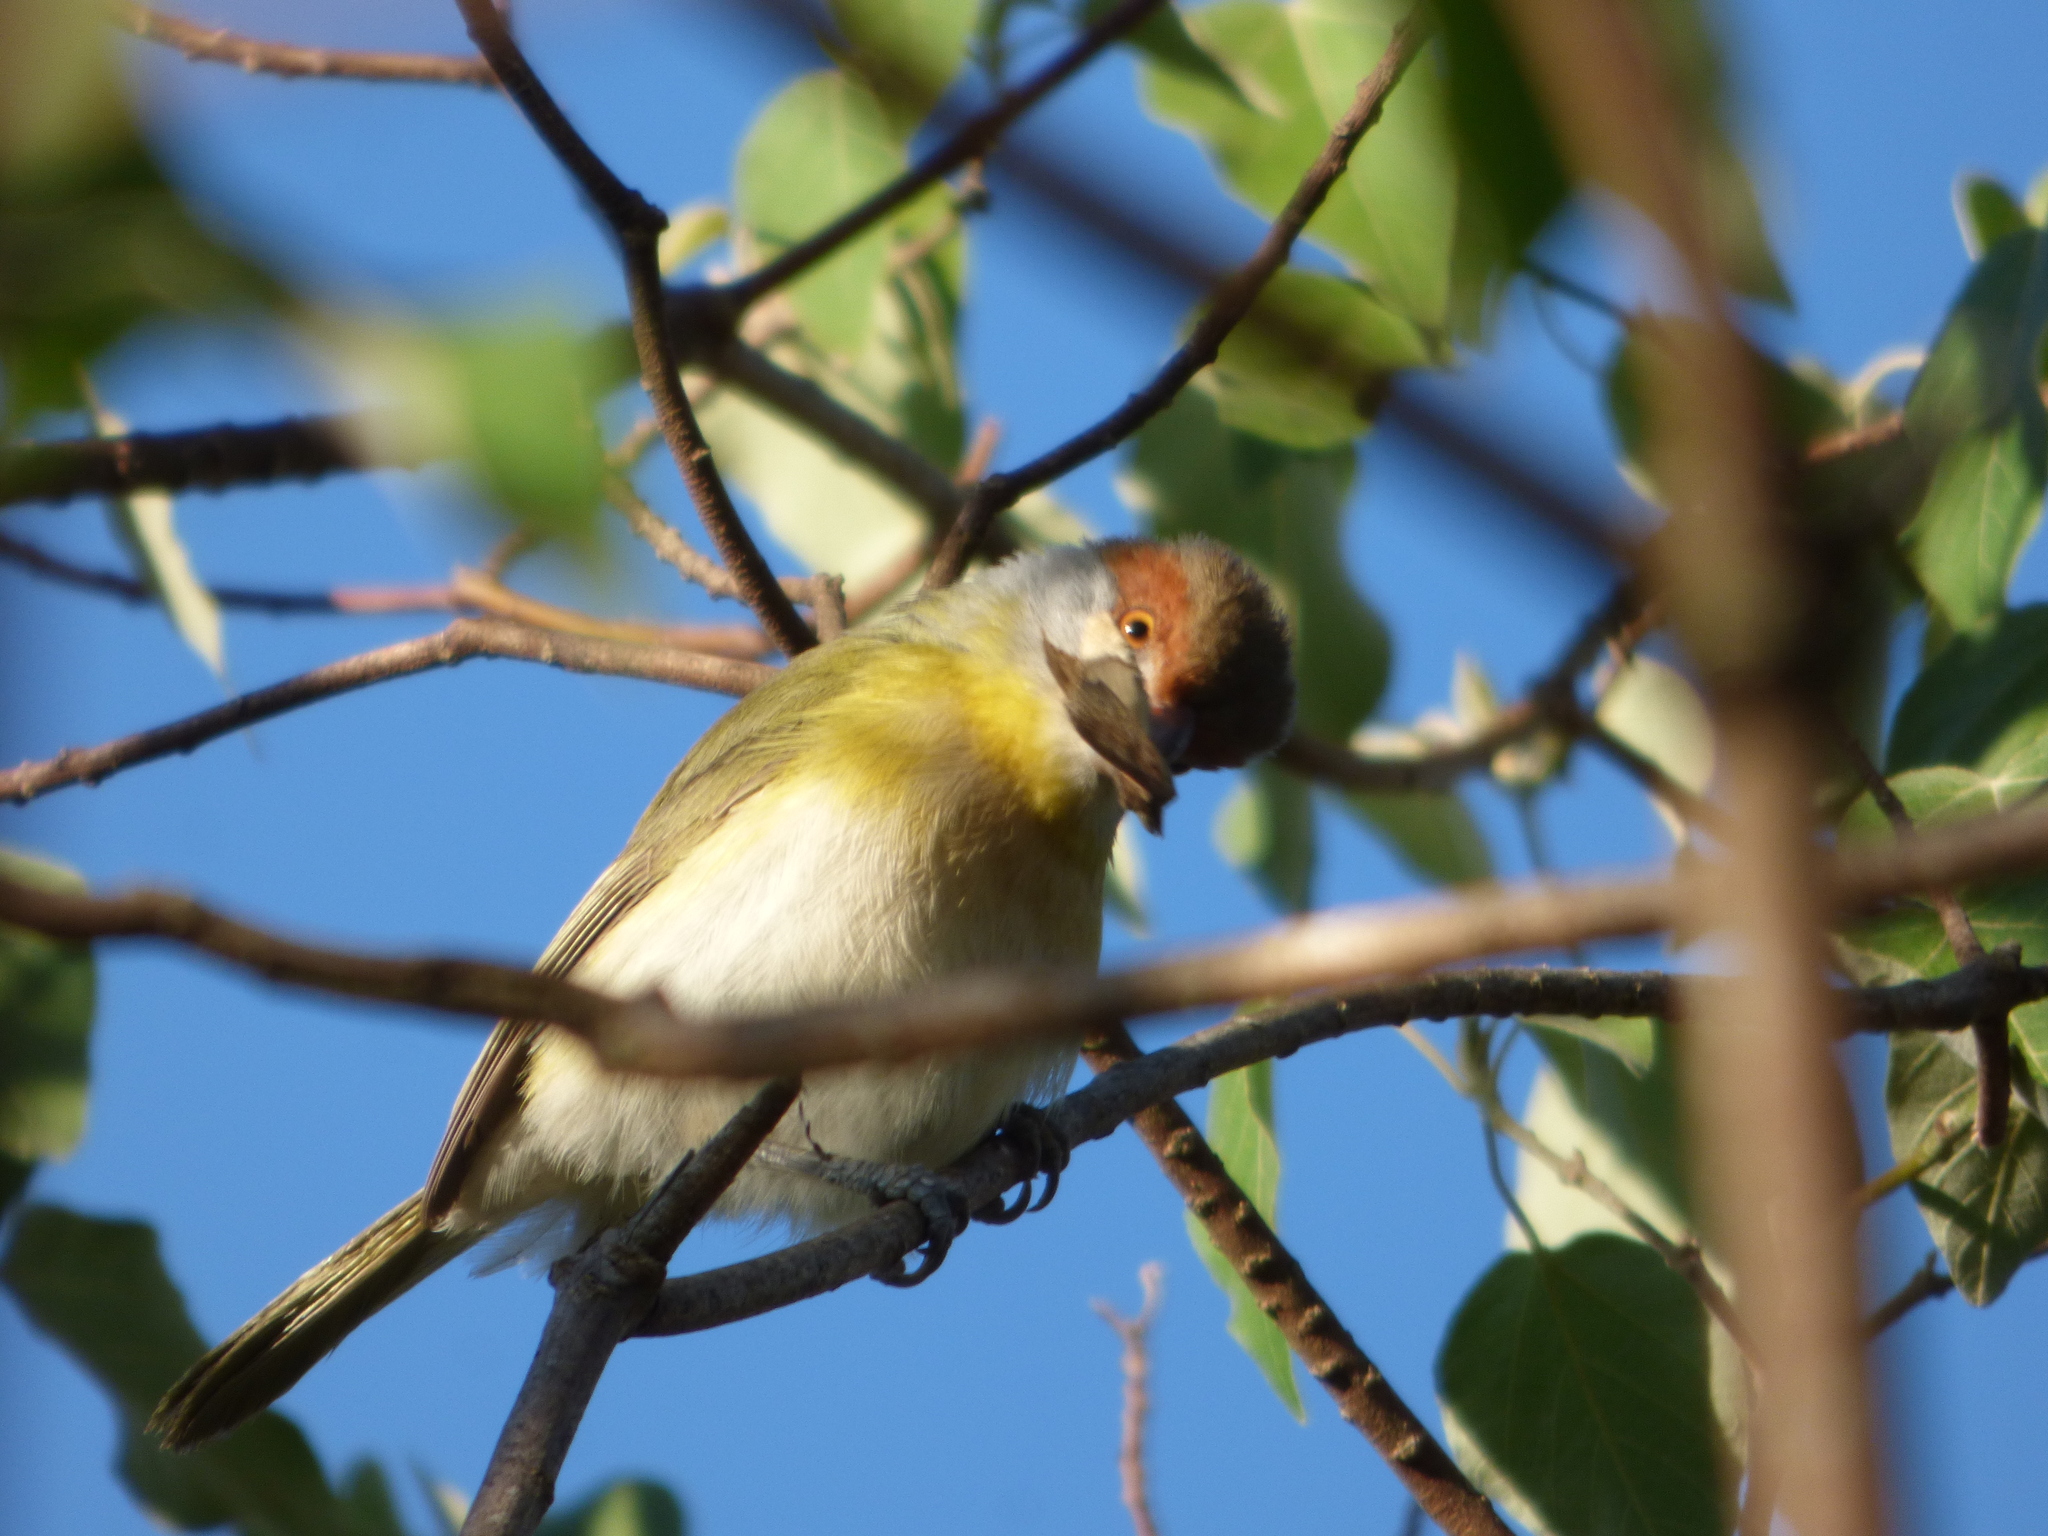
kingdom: Animalia
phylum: Chordata
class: Aves
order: Passeriformes
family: Vireonidae
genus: Cyclarhis
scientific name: Cyclarhis gujanensis
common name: Rufous-browed peppershrike
